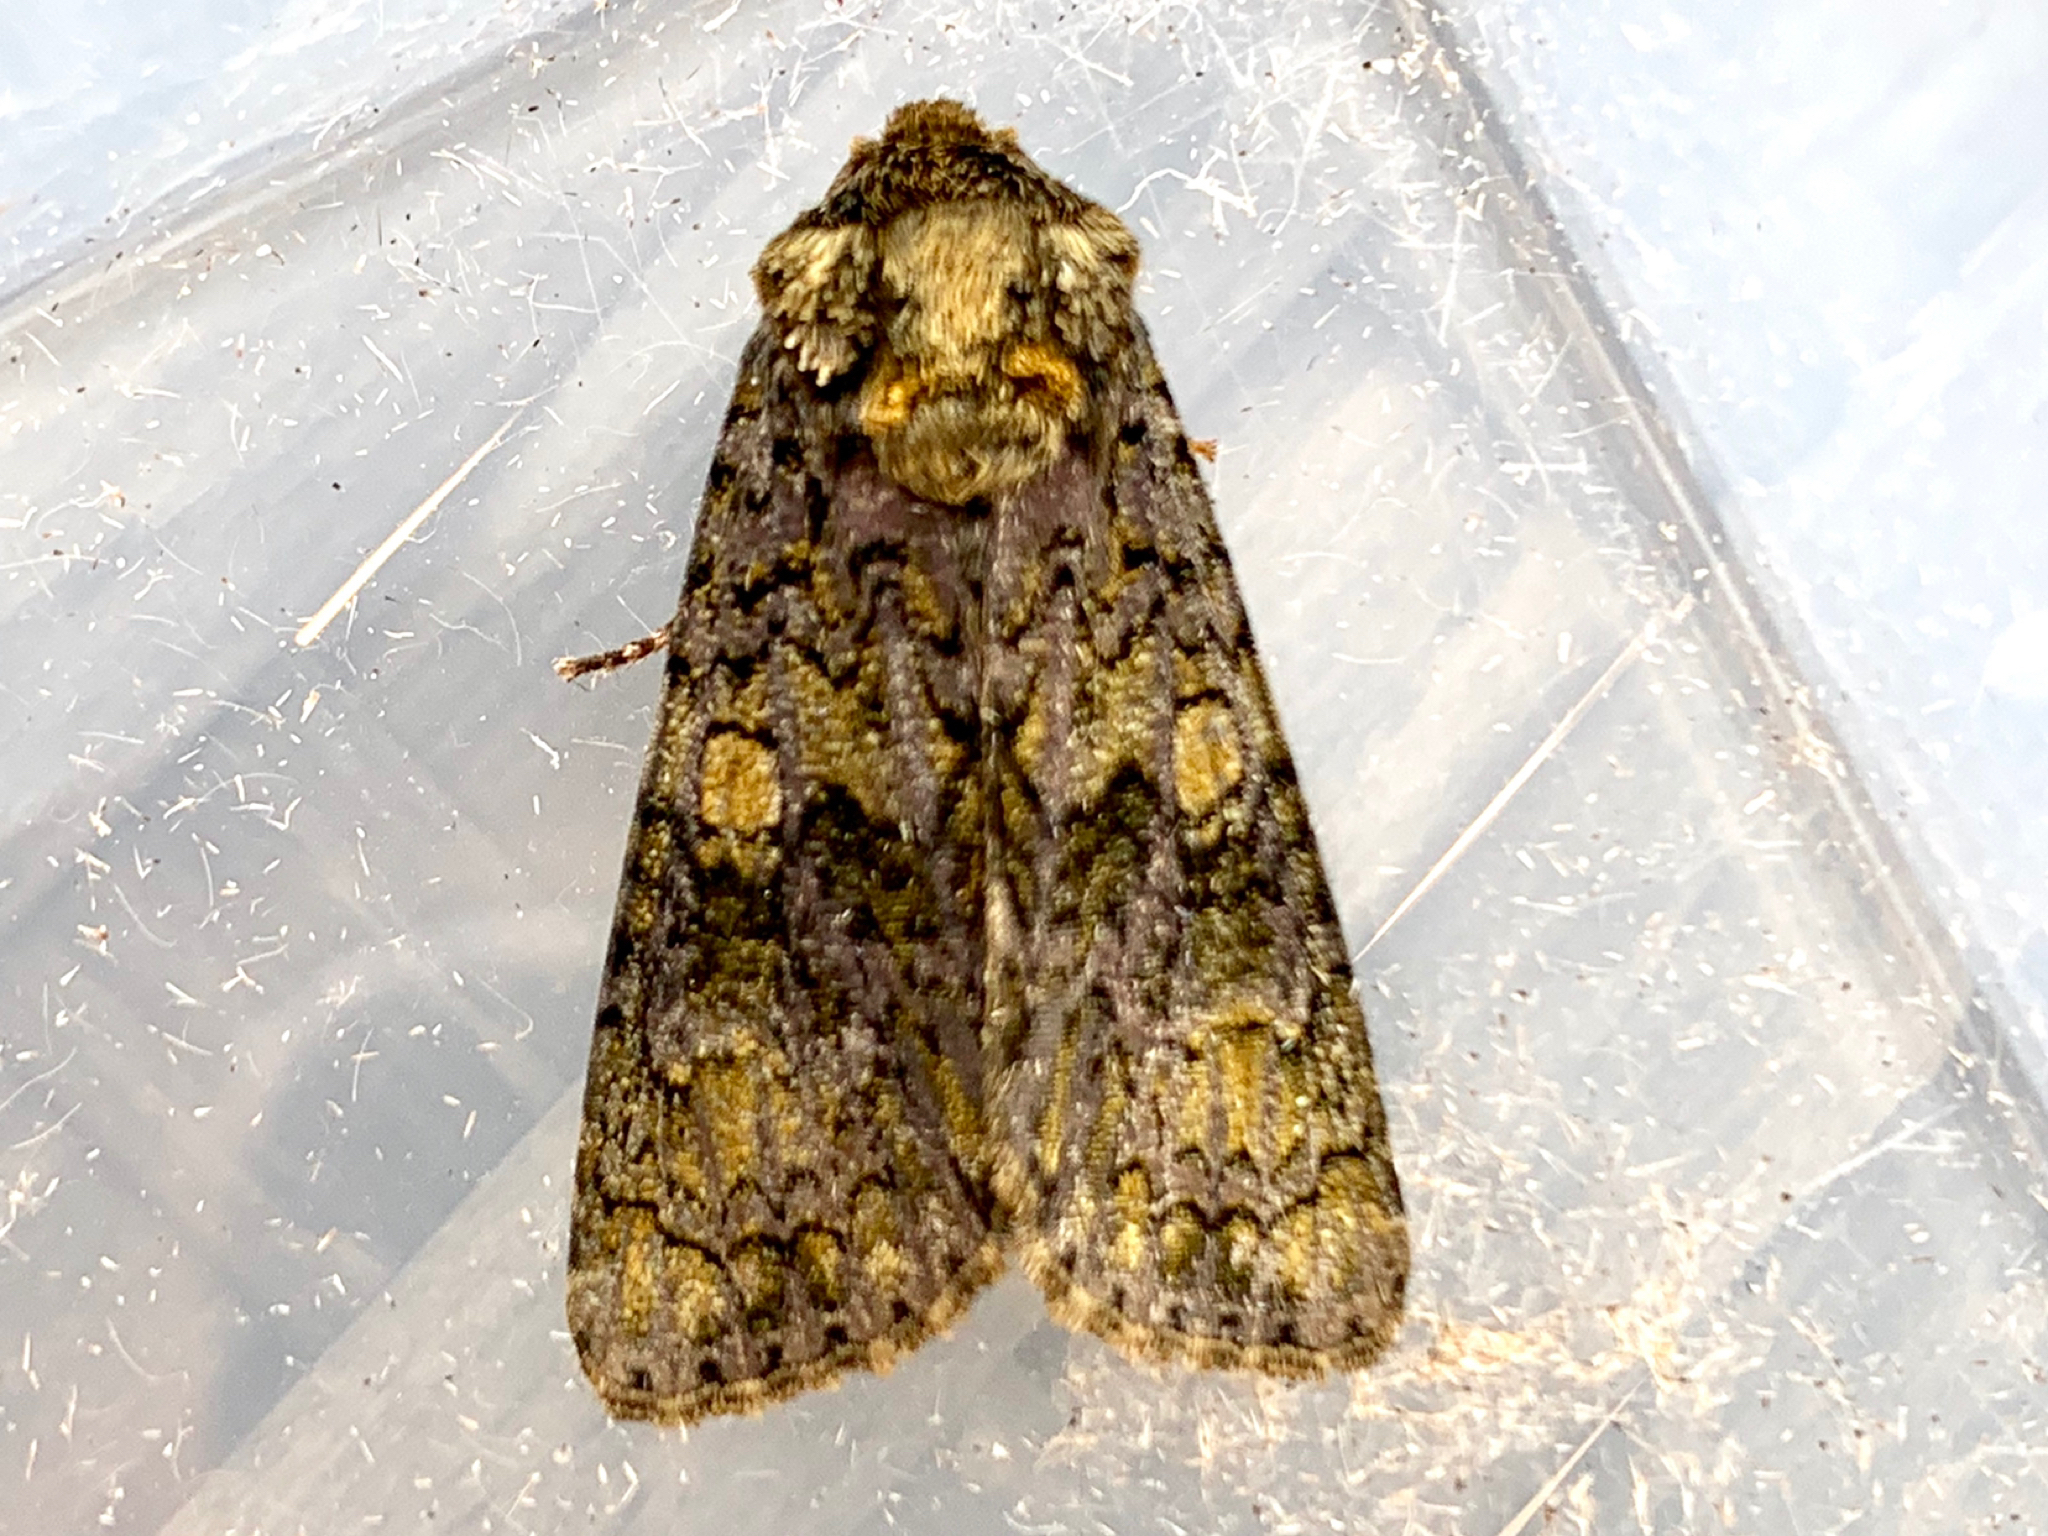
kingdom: Animalia
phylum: Arthropoda
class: Insecta
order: Lepidoptera
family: Noctuidae
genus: Craniophora
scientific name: Craniophora ligustri
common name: Coronet
